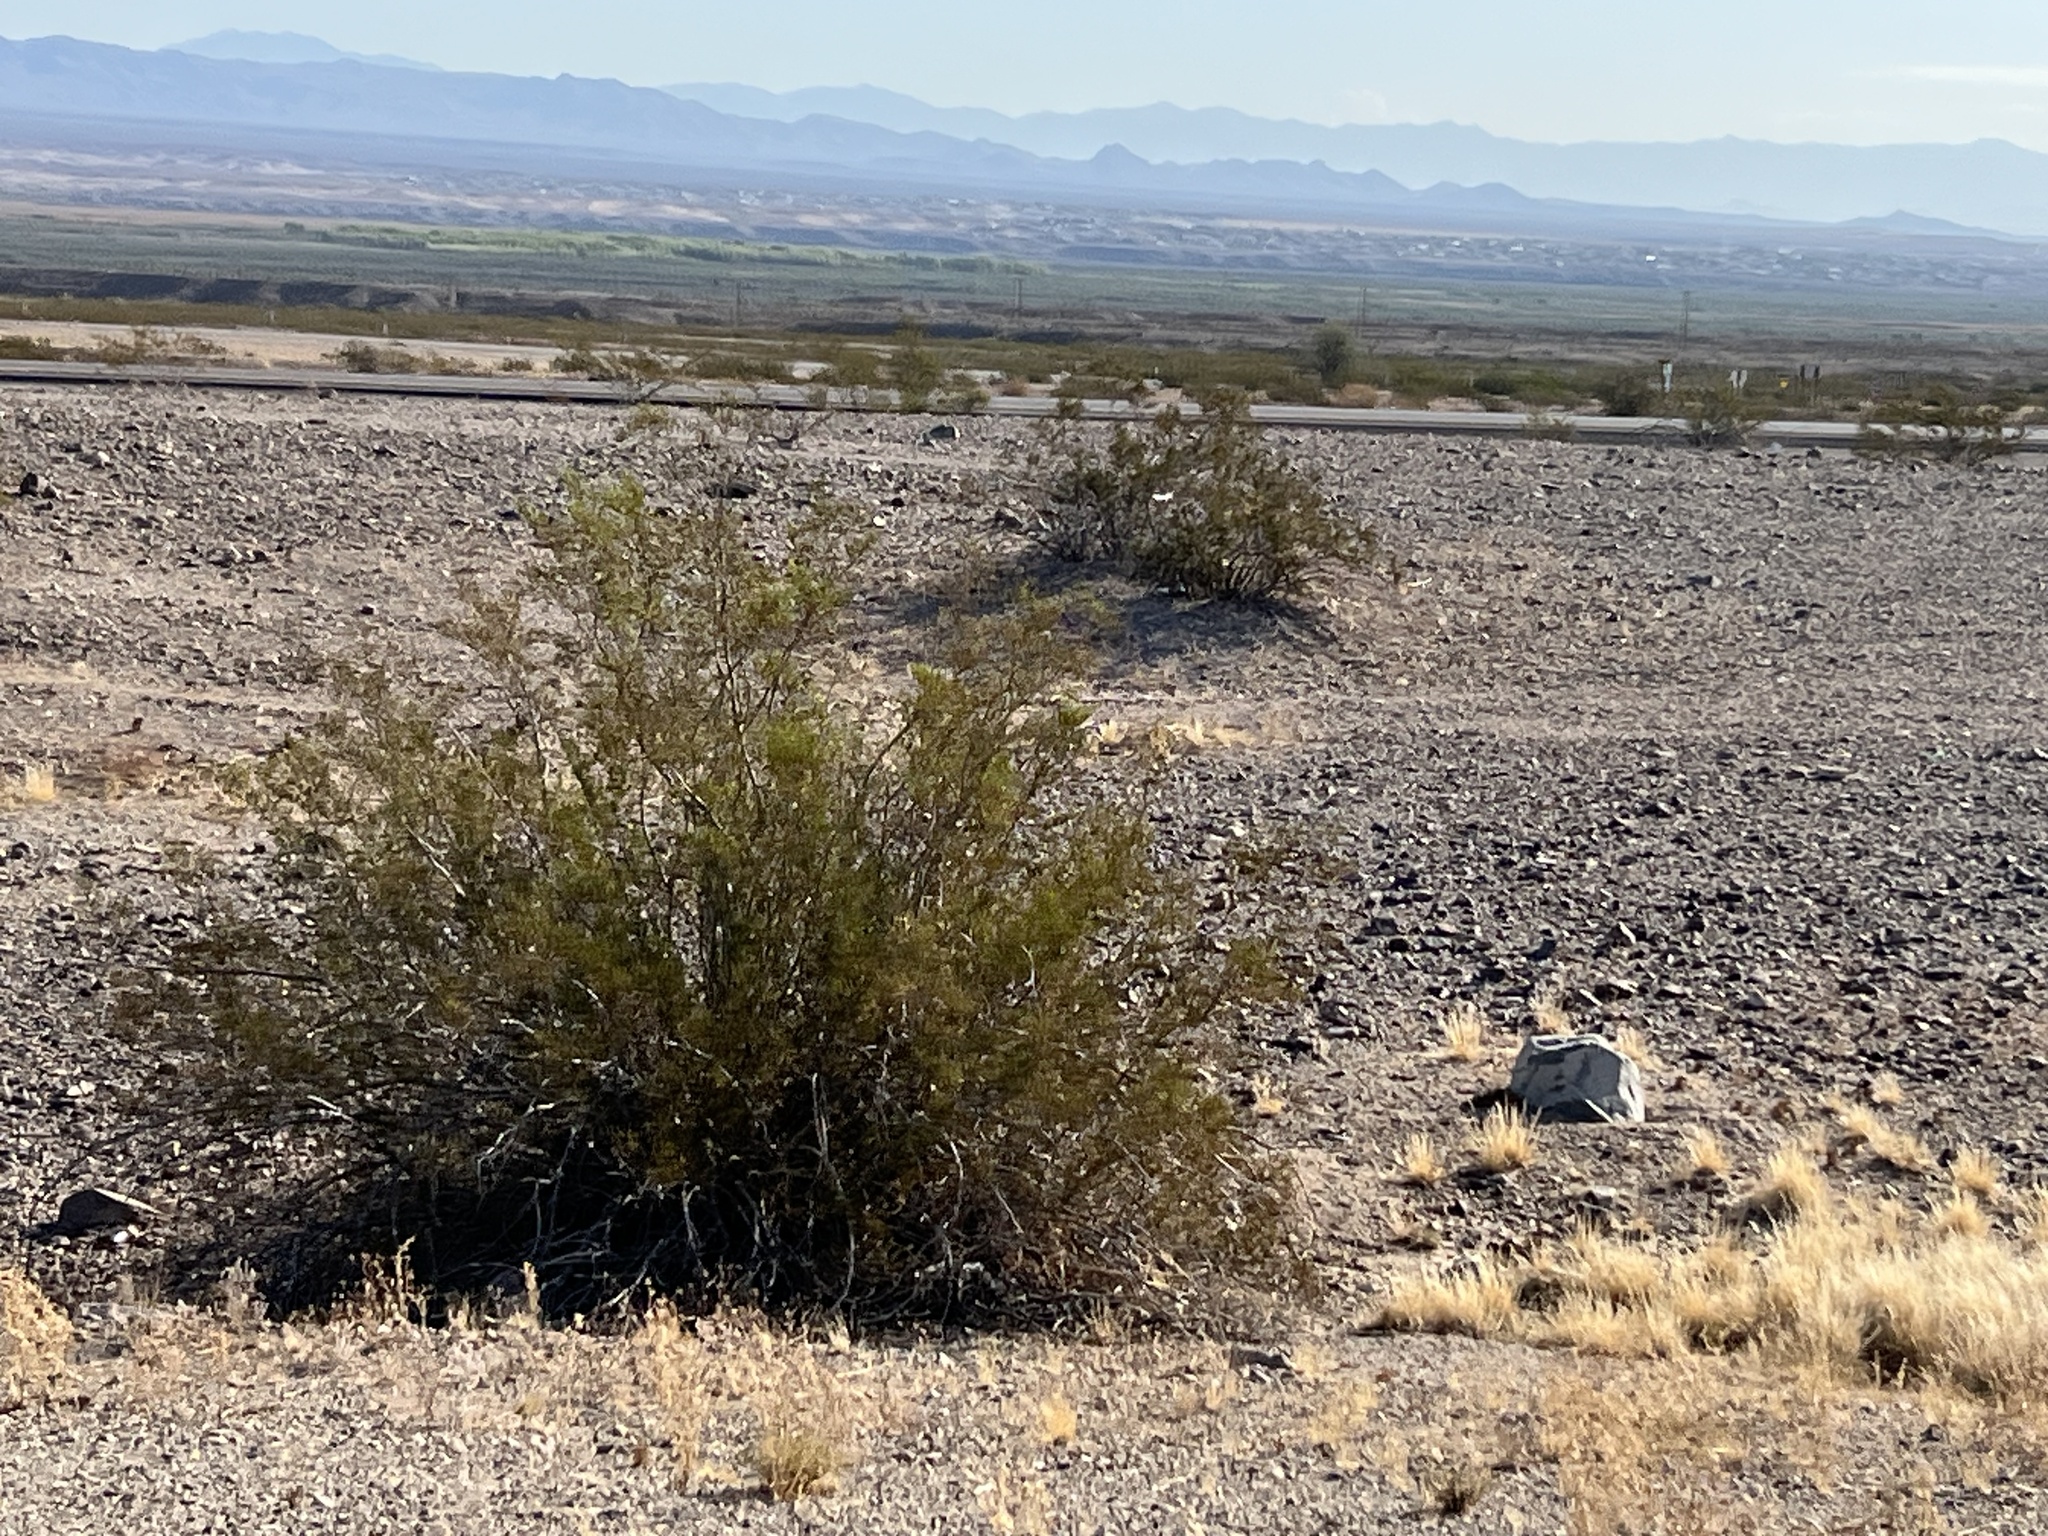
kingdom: Plantae
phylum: Tracheophyta
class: Magnoliopsida
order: Zygophyllales
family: Zygophyllaceae
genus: Larrea
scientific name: Larrea tridentata
